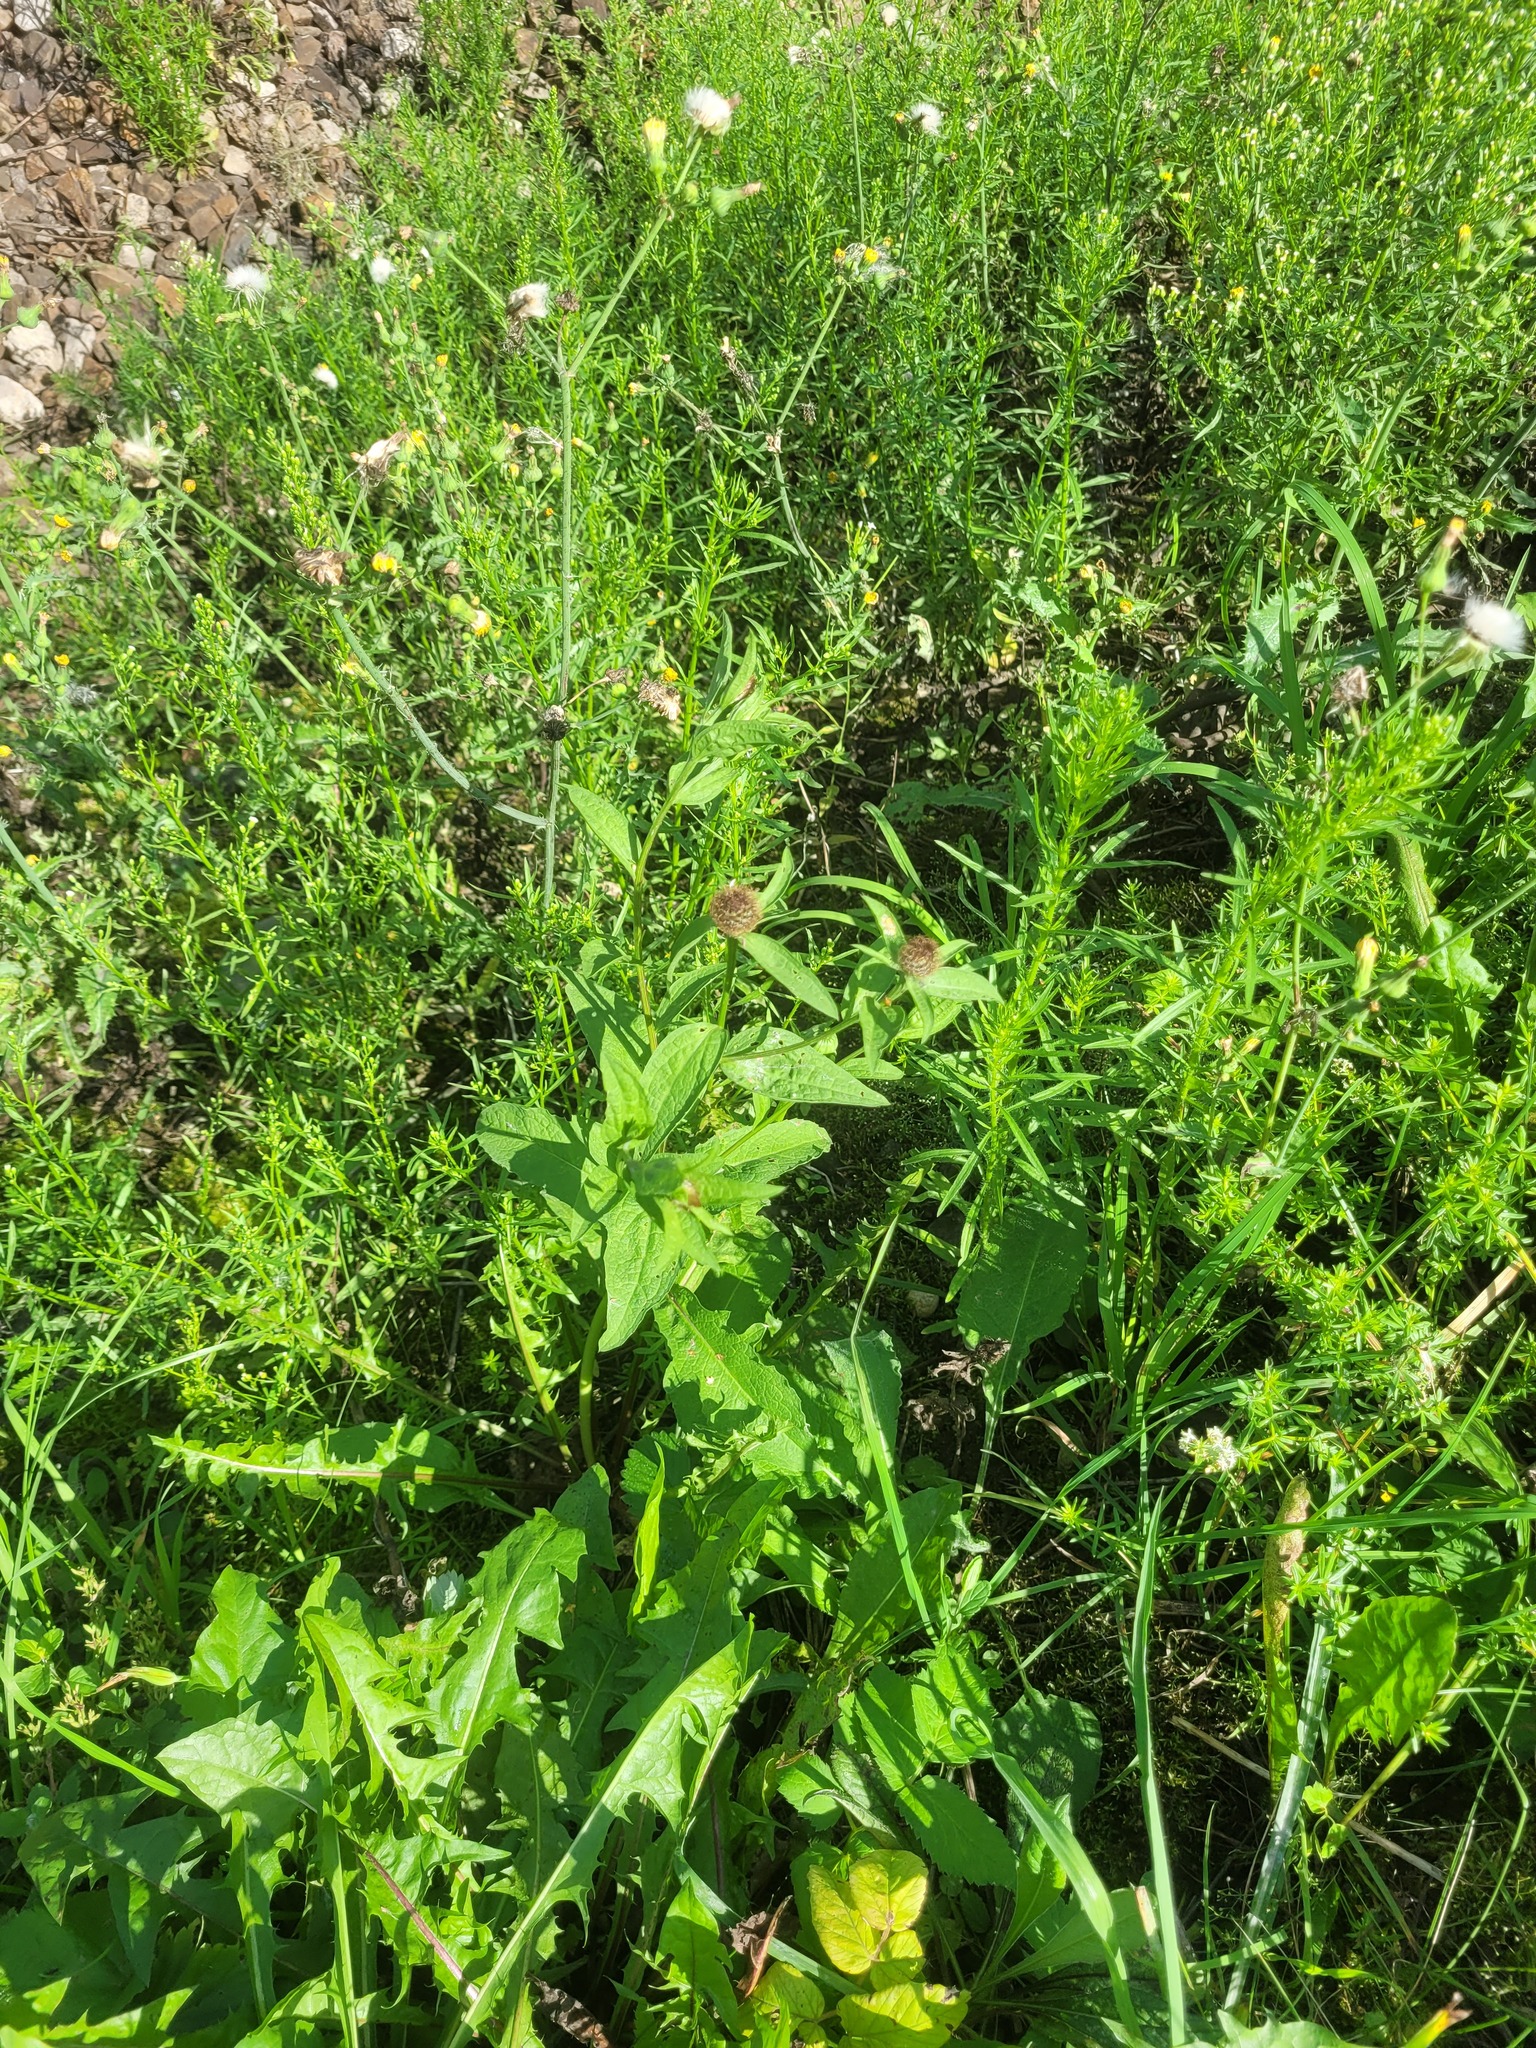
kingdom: Plantae
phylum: Tracheophyta
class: Magnoliopsida
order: Asterales
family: Asteraceae
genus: Centaurea
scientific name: Centaurea pseudophrygia
